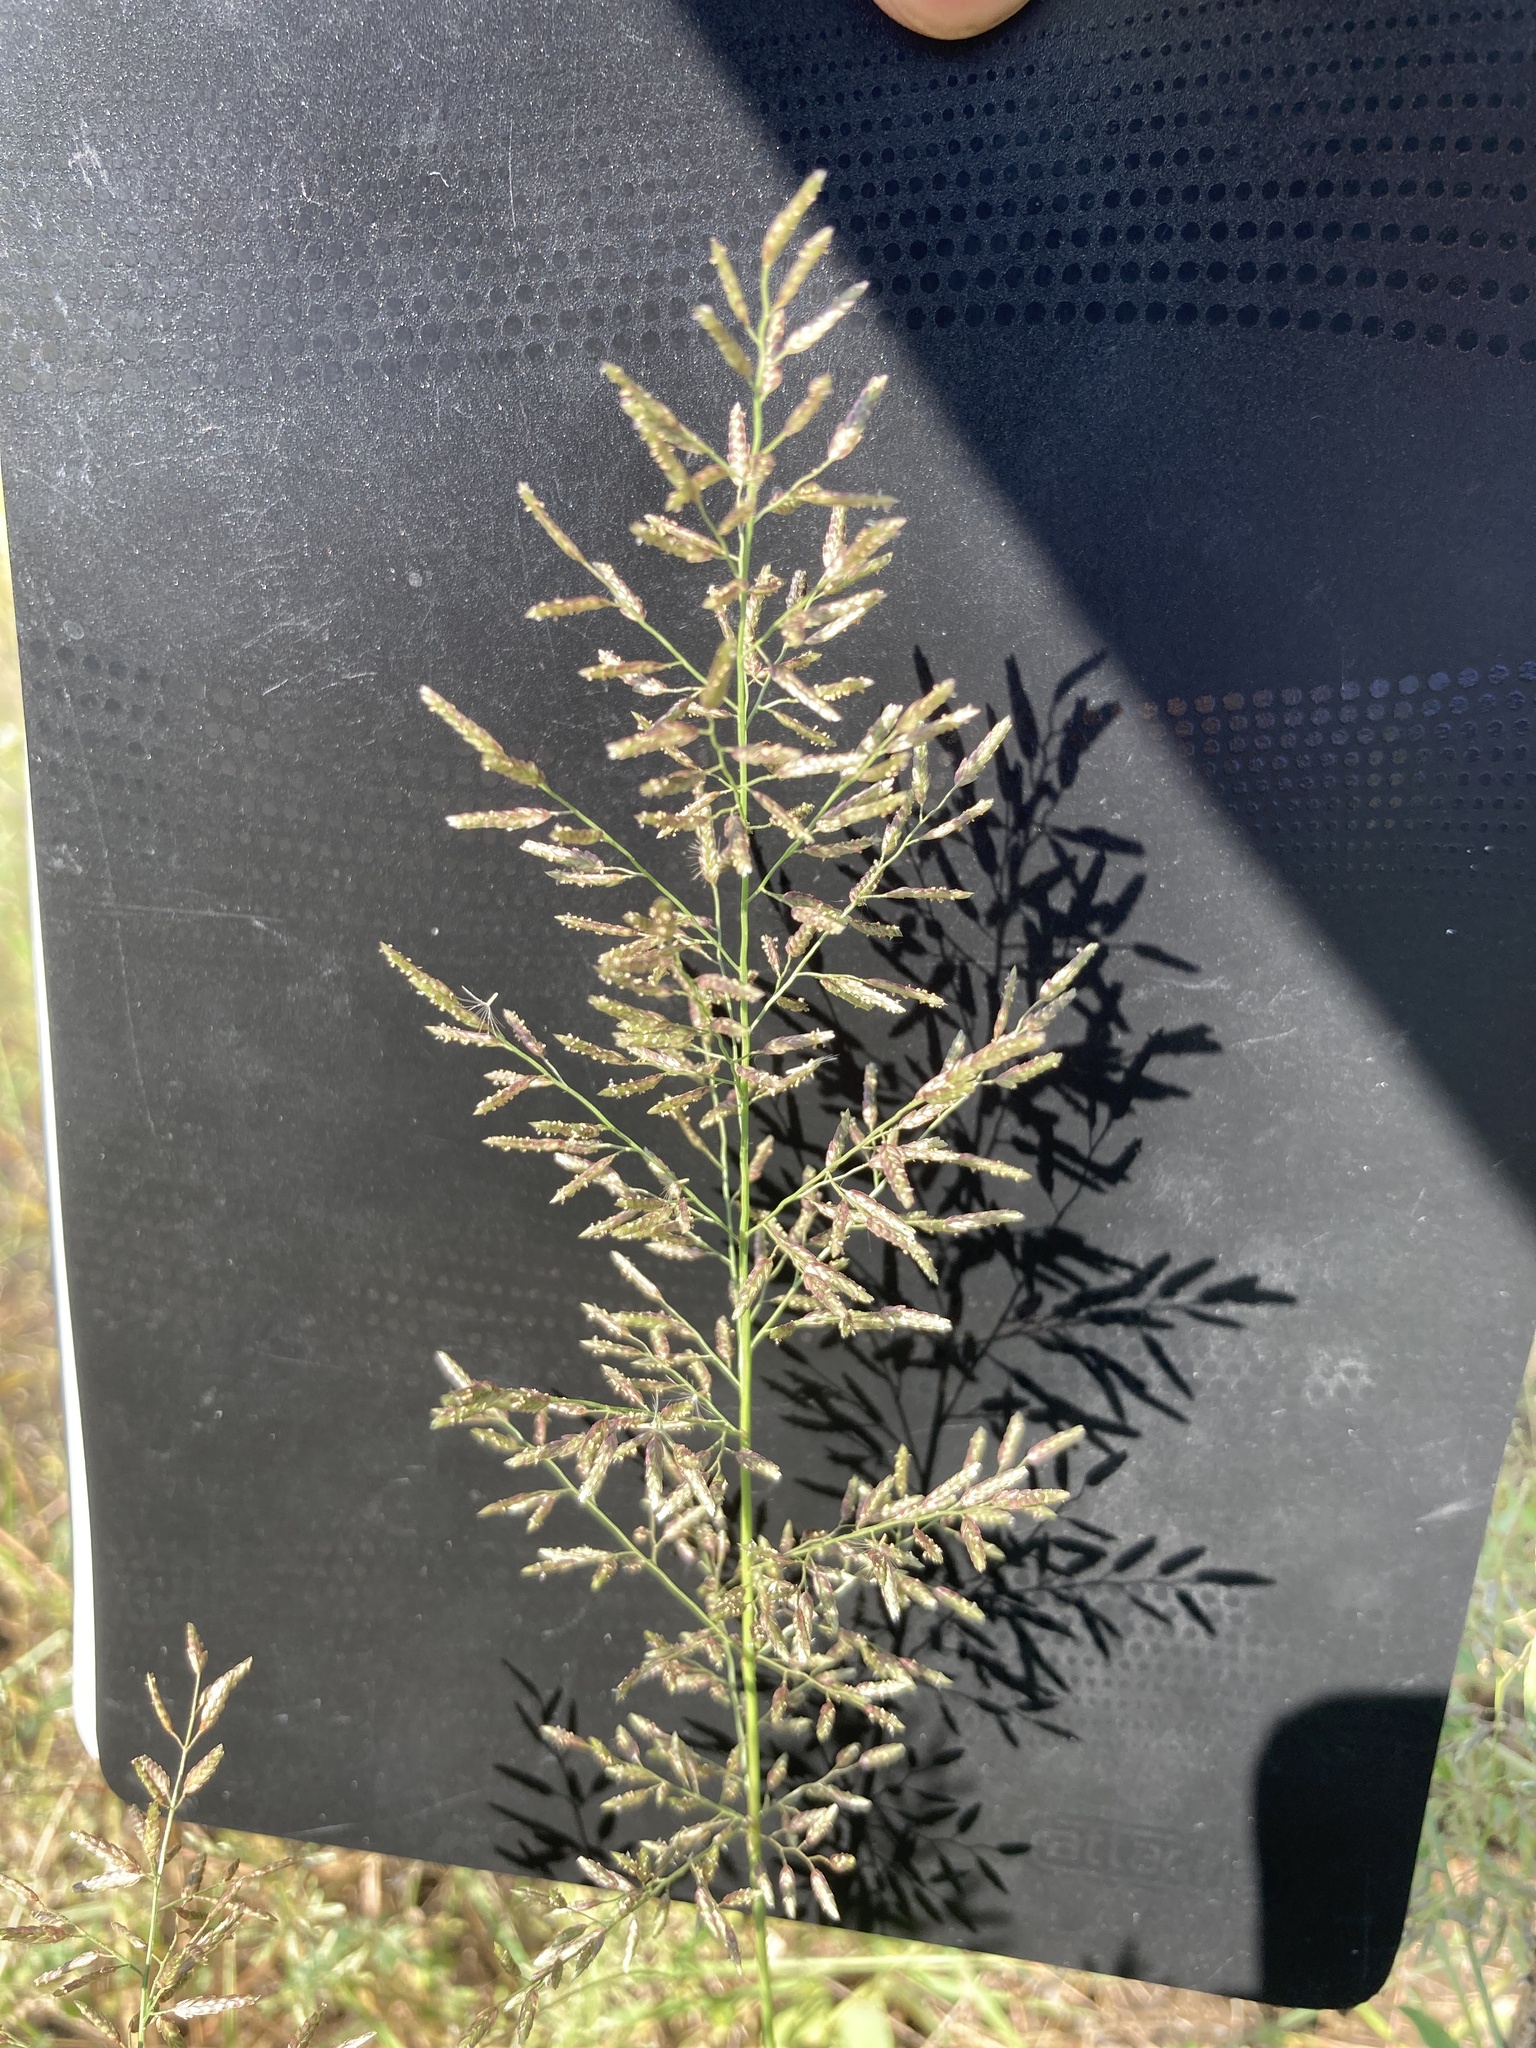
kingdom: Plantae
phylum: Tracheophyta
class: Liliopsida
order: Poales
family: Poaceae
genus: Eragrostis
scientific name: Eragrostis minor
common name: Small love-grass
